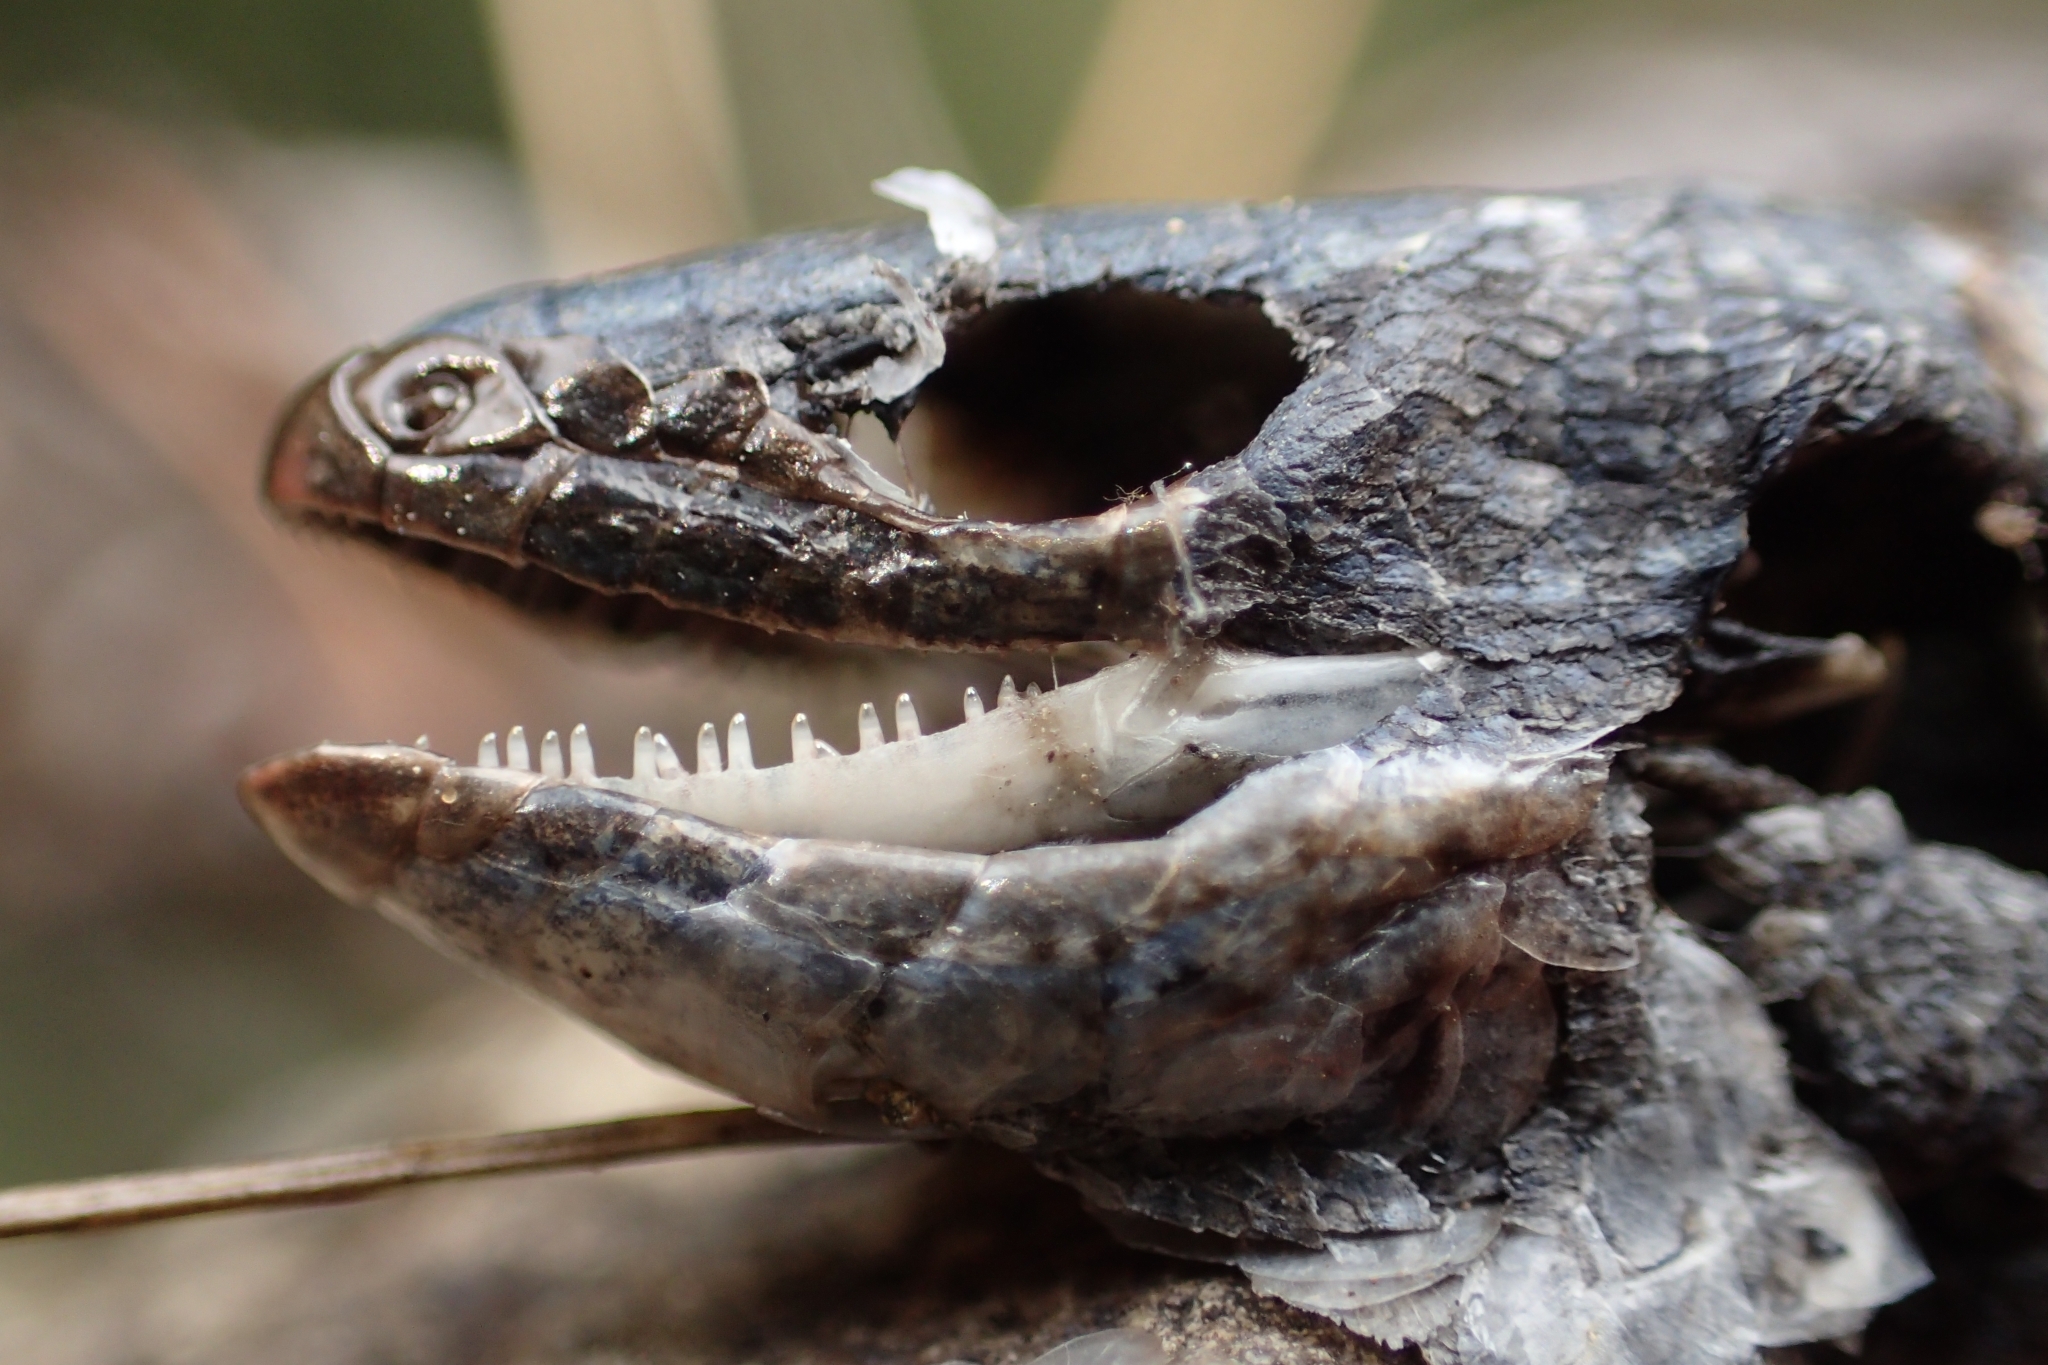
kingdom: Animalia
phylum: Chordata
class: Squamata
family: Scincidae
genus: Oligosoma
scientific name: Oligosoma repens
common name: Eyres skink
